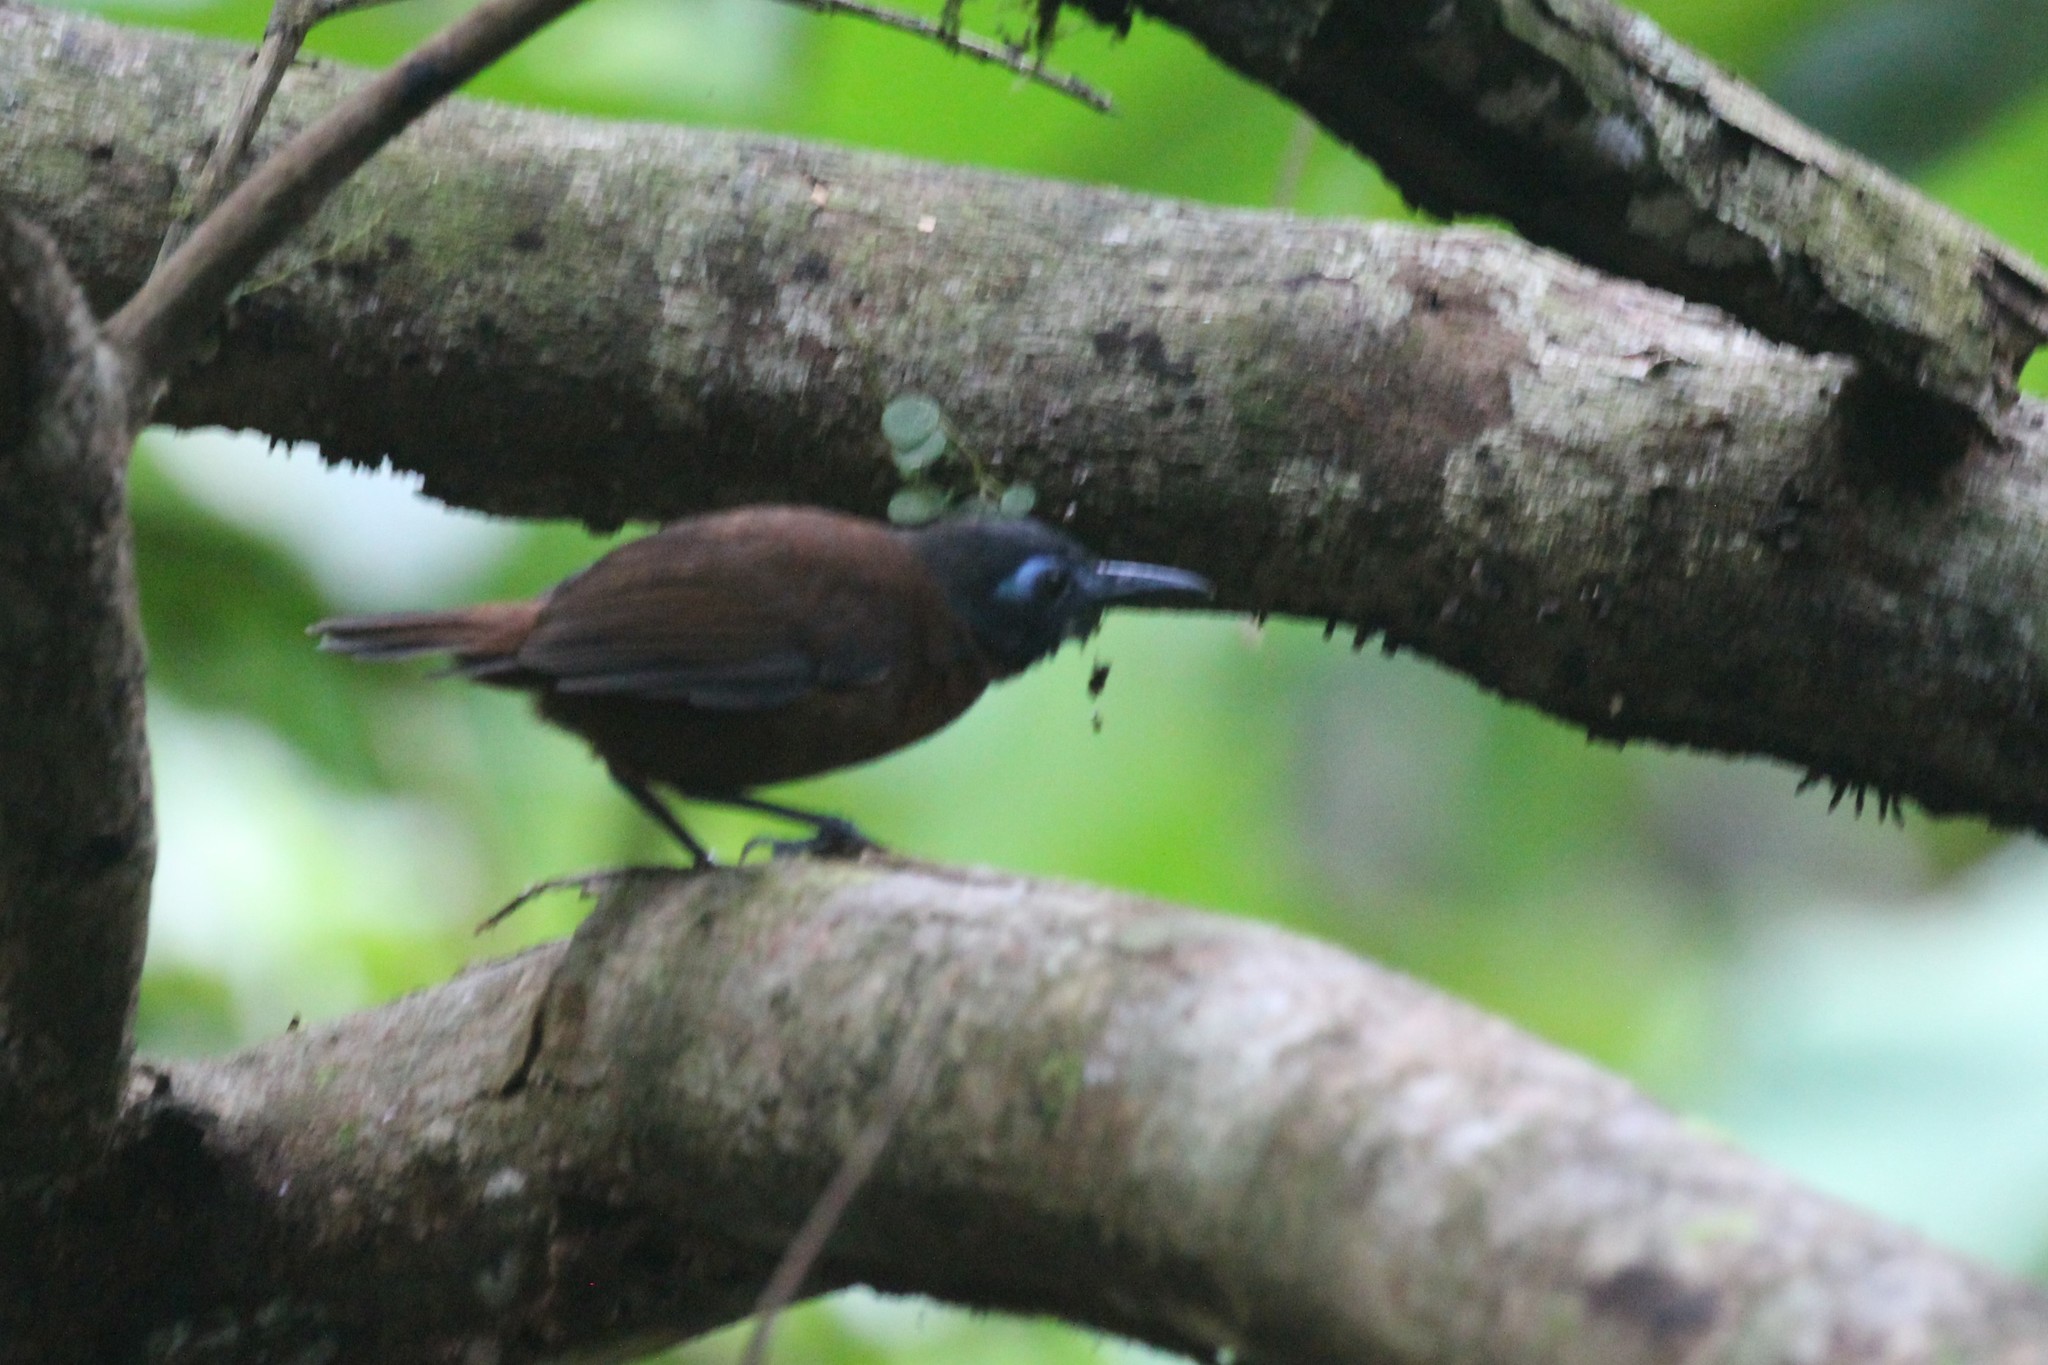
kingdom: Animalia
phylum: Chordata
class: Aves
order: Passeriformes
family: Thamnophilidae
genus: Myrmeciza
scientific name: Myrmeciza exsul
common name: Chestnut-backed antbird
